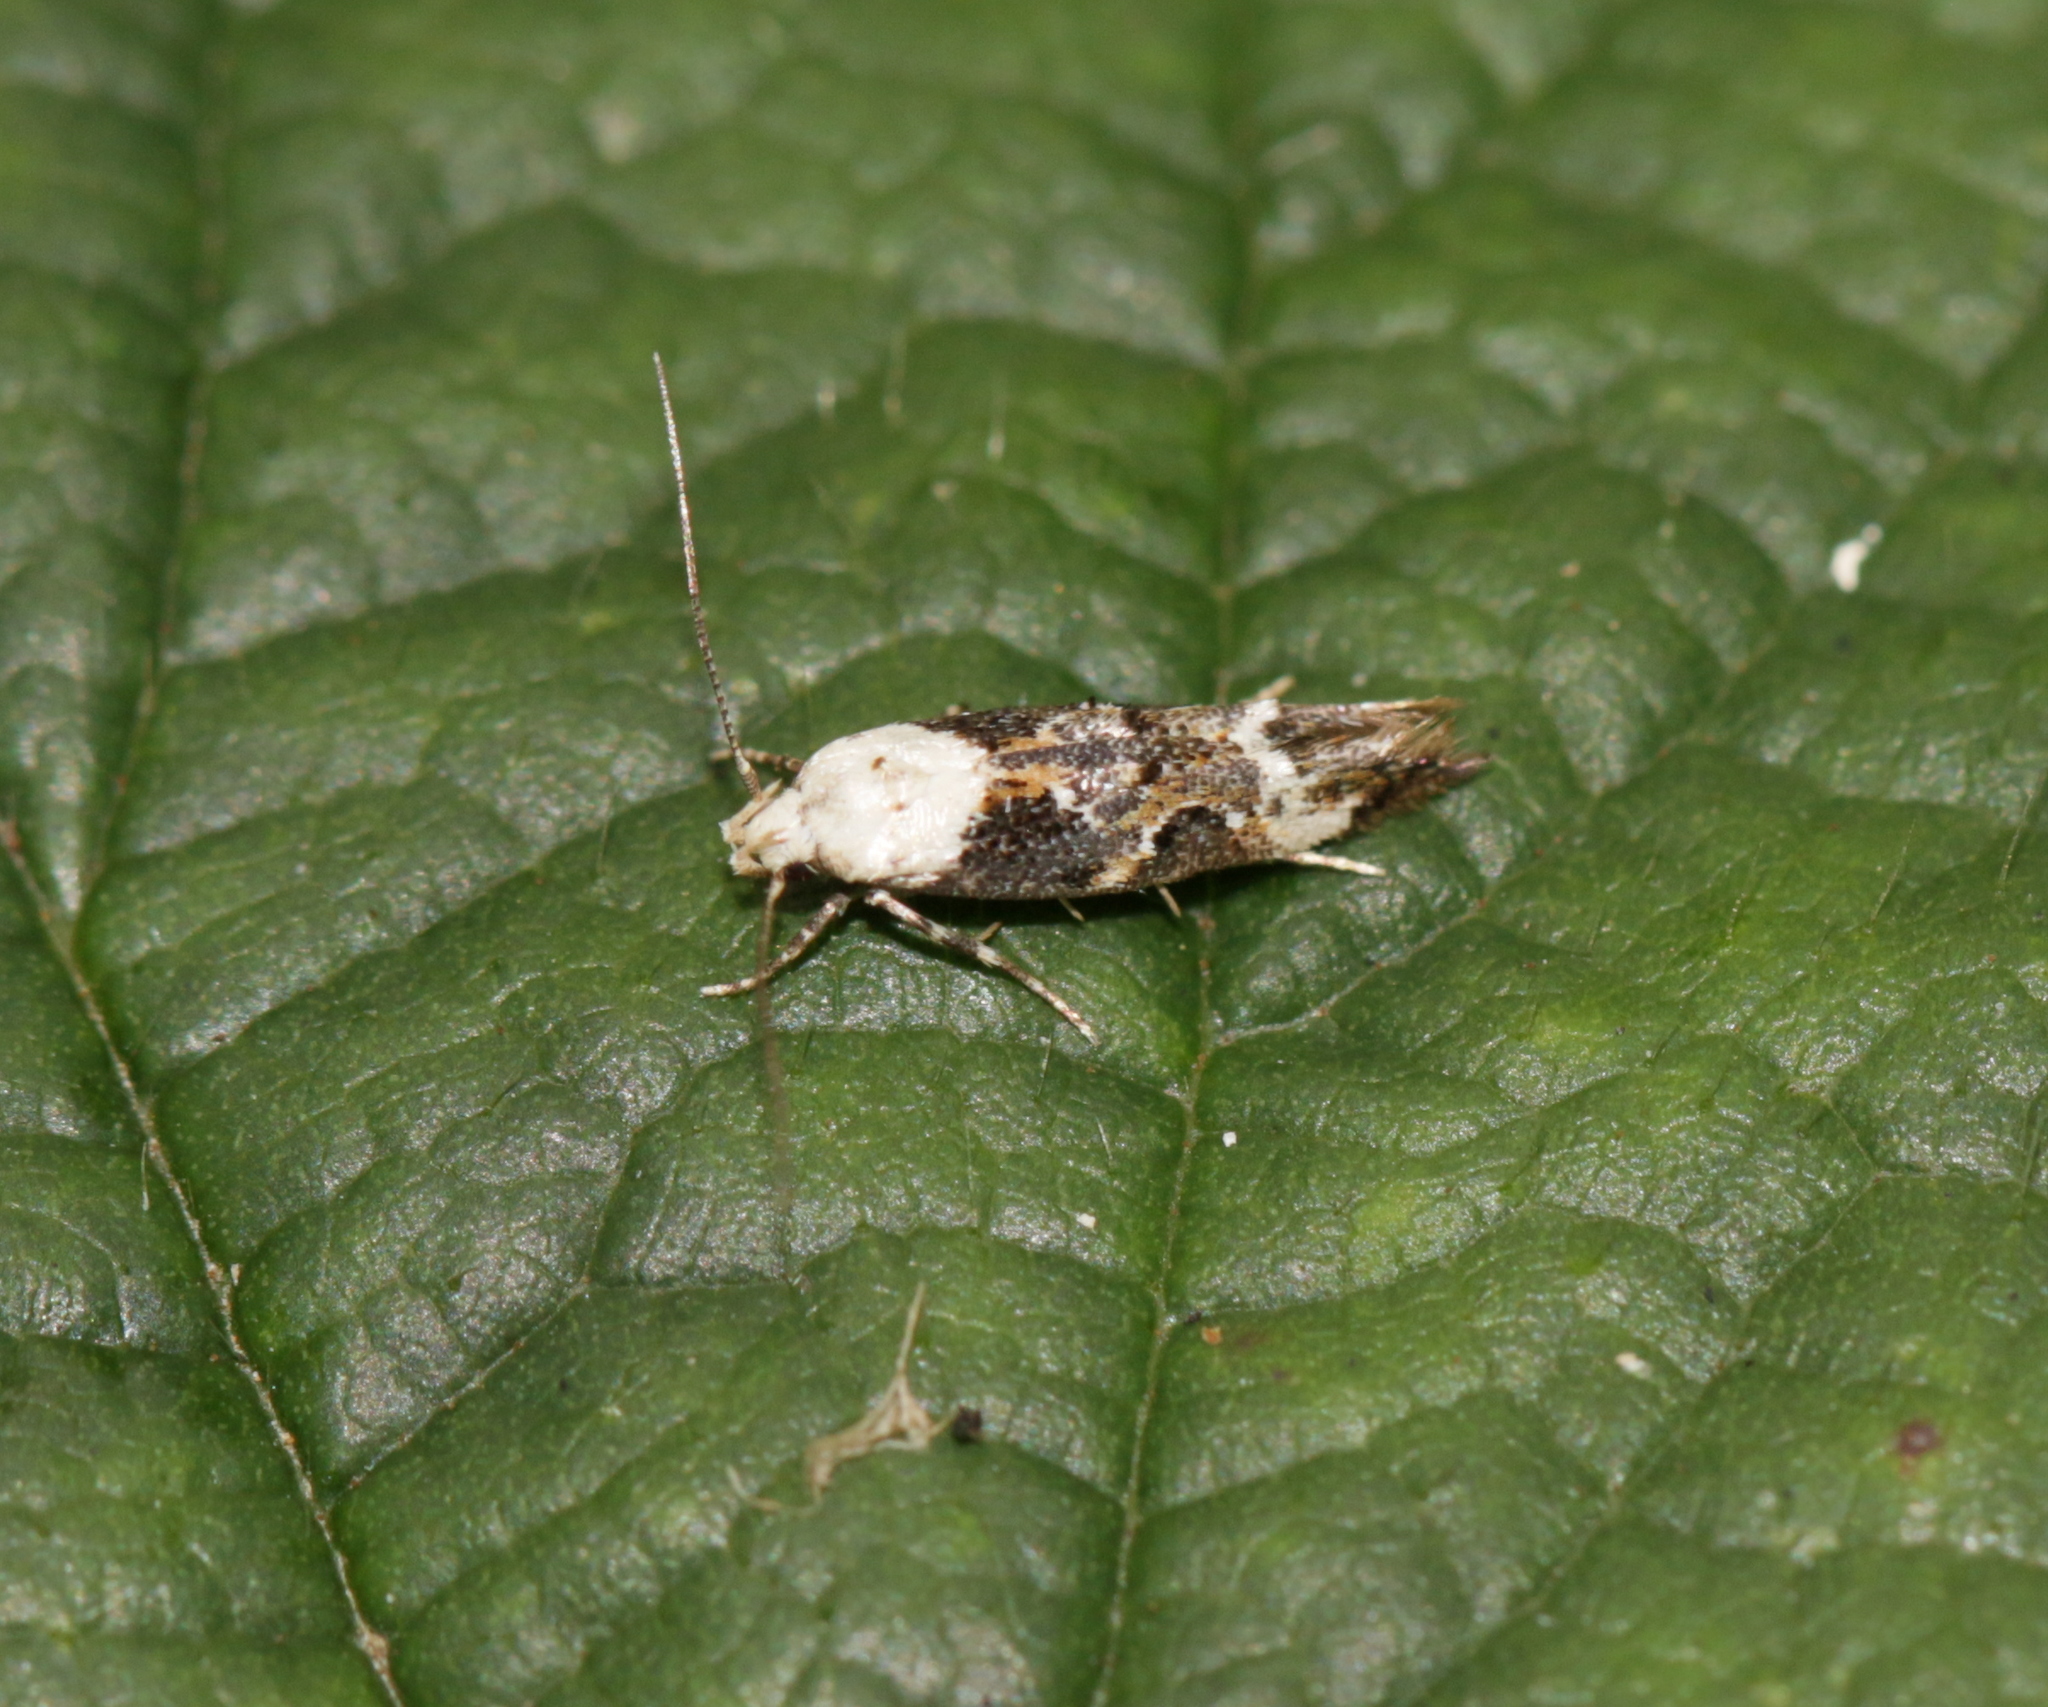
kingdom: Animalia
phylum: Arthropoda
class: Insecta
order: Lepidoptera
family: Momphidae
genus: Mompha
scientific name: Mompha propinquella
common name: Marbled cosmet
